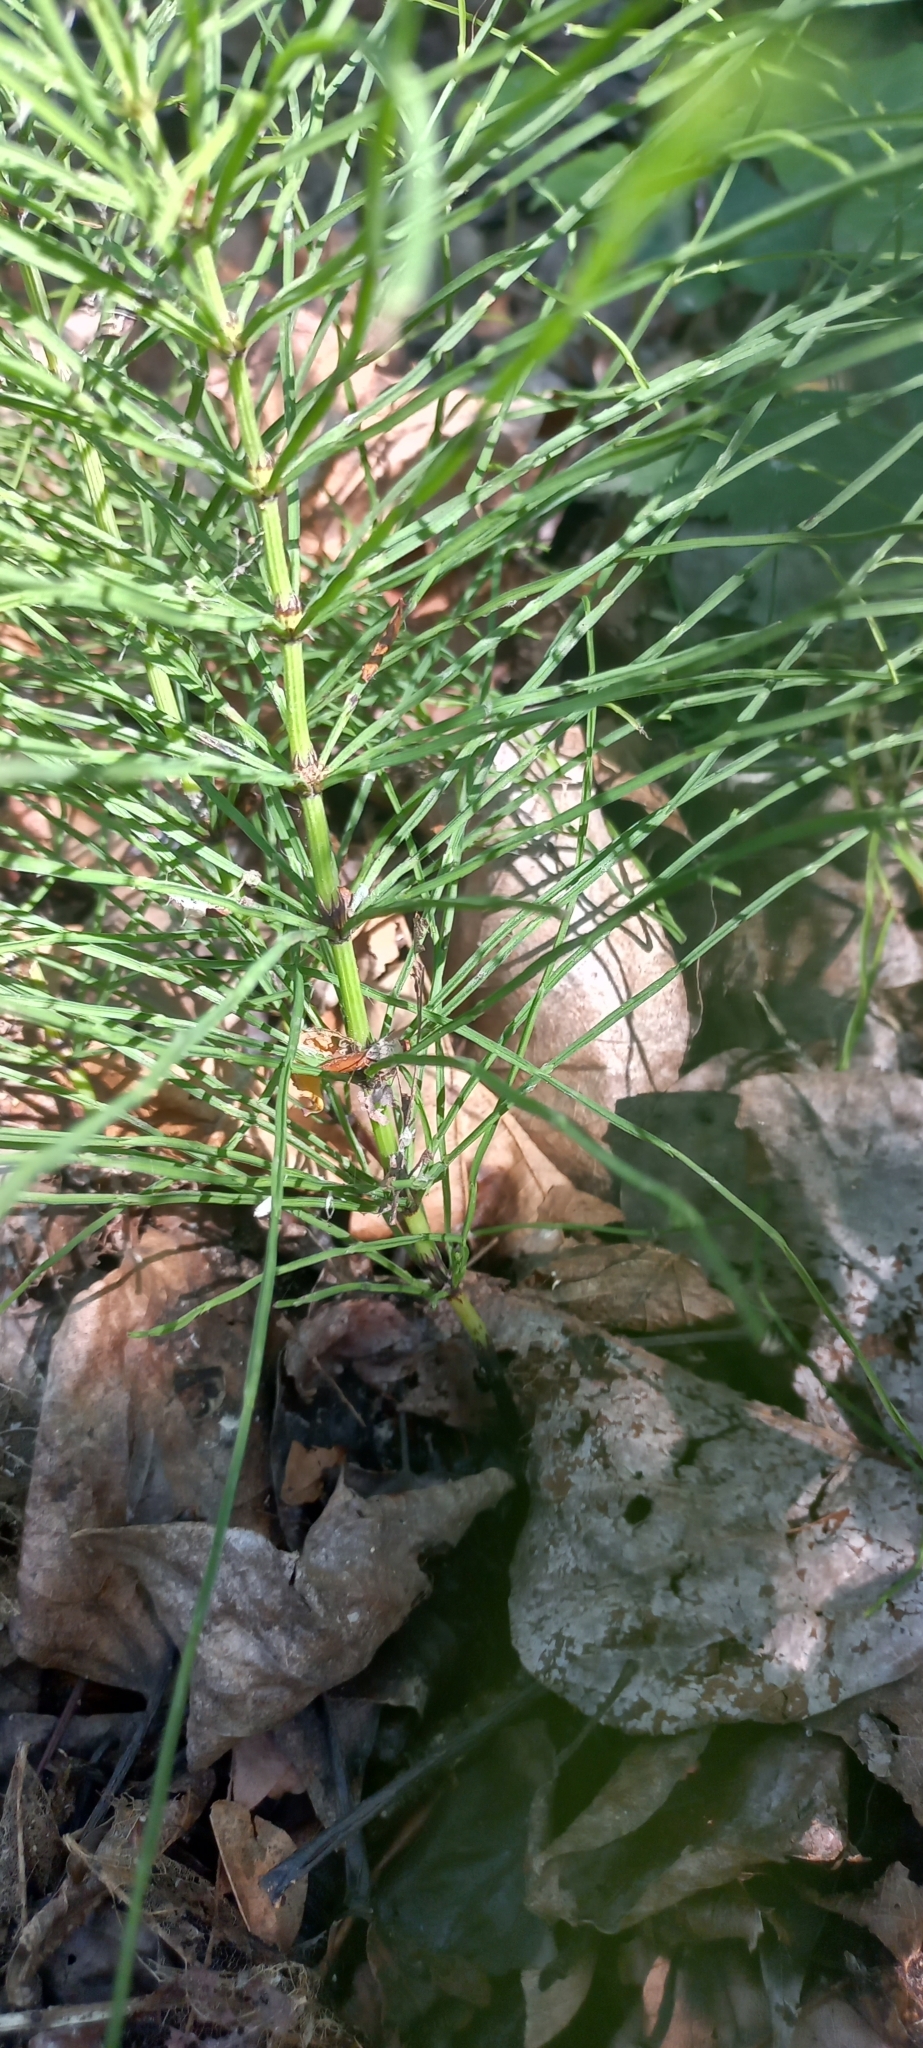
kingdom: Plantae
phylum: Tracheophyta
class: Polypodiopsida
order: Equisetales
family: Equisetaceae
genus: Equisetum
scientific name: Equisetum arvense
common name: Field horsetail
